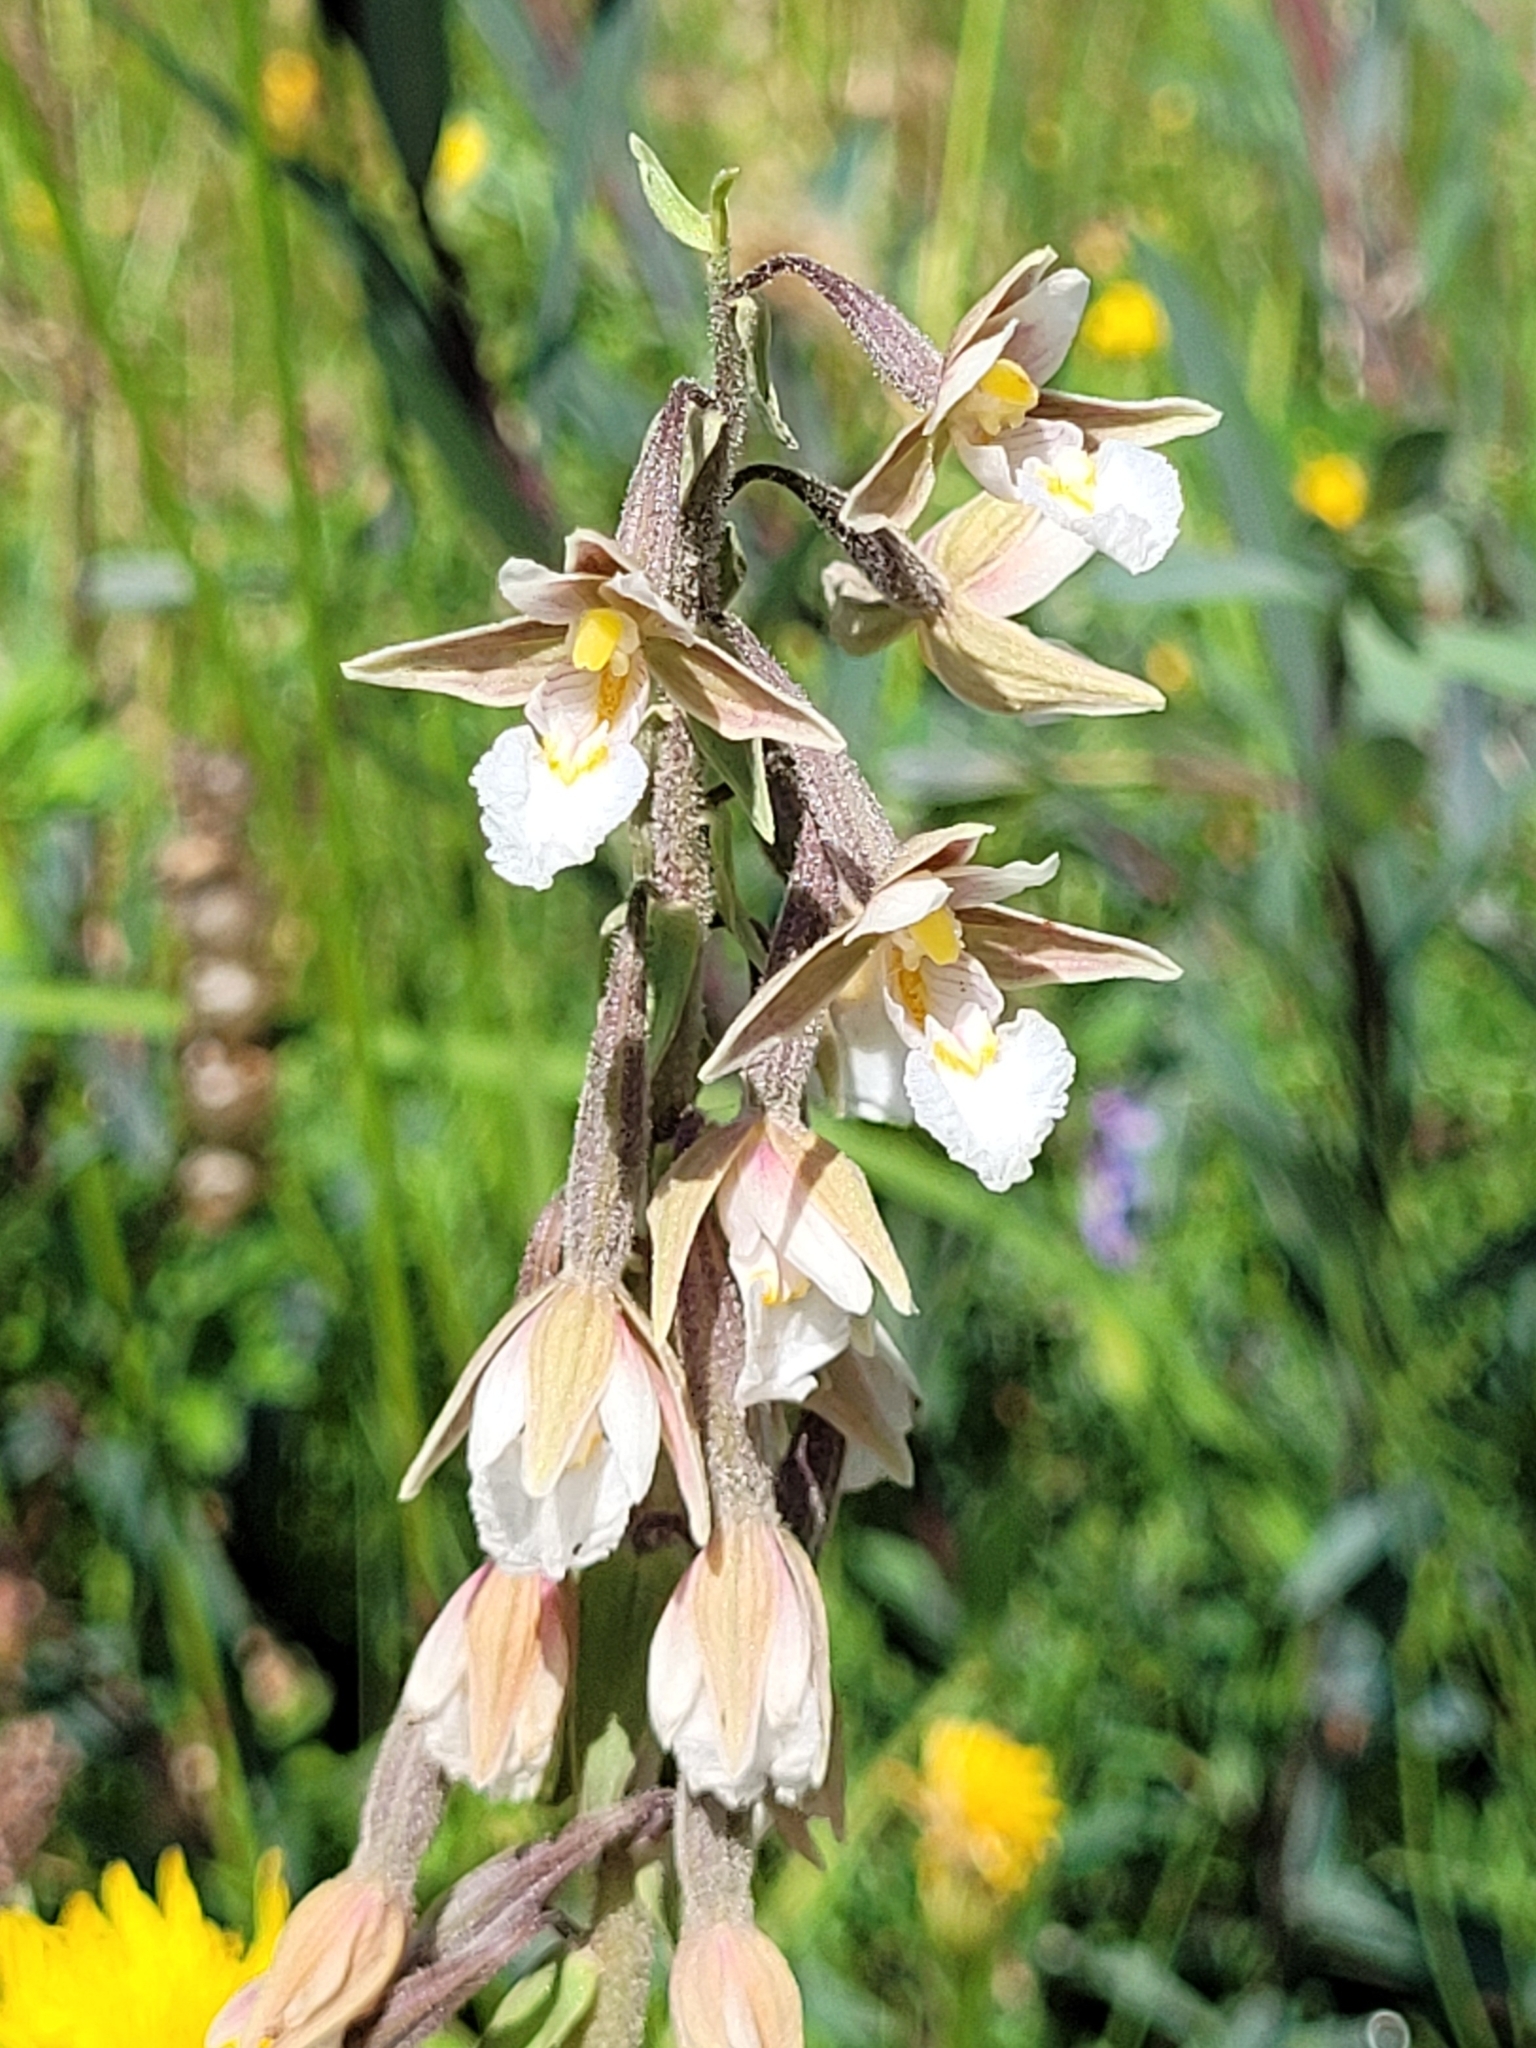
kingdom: Plantae
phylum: Tracheophyta
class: Liliopsida
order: Asparagales
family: Orchidaceae
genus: Epipactis
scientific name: Epipactis palustris
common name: Marsh helleborine
